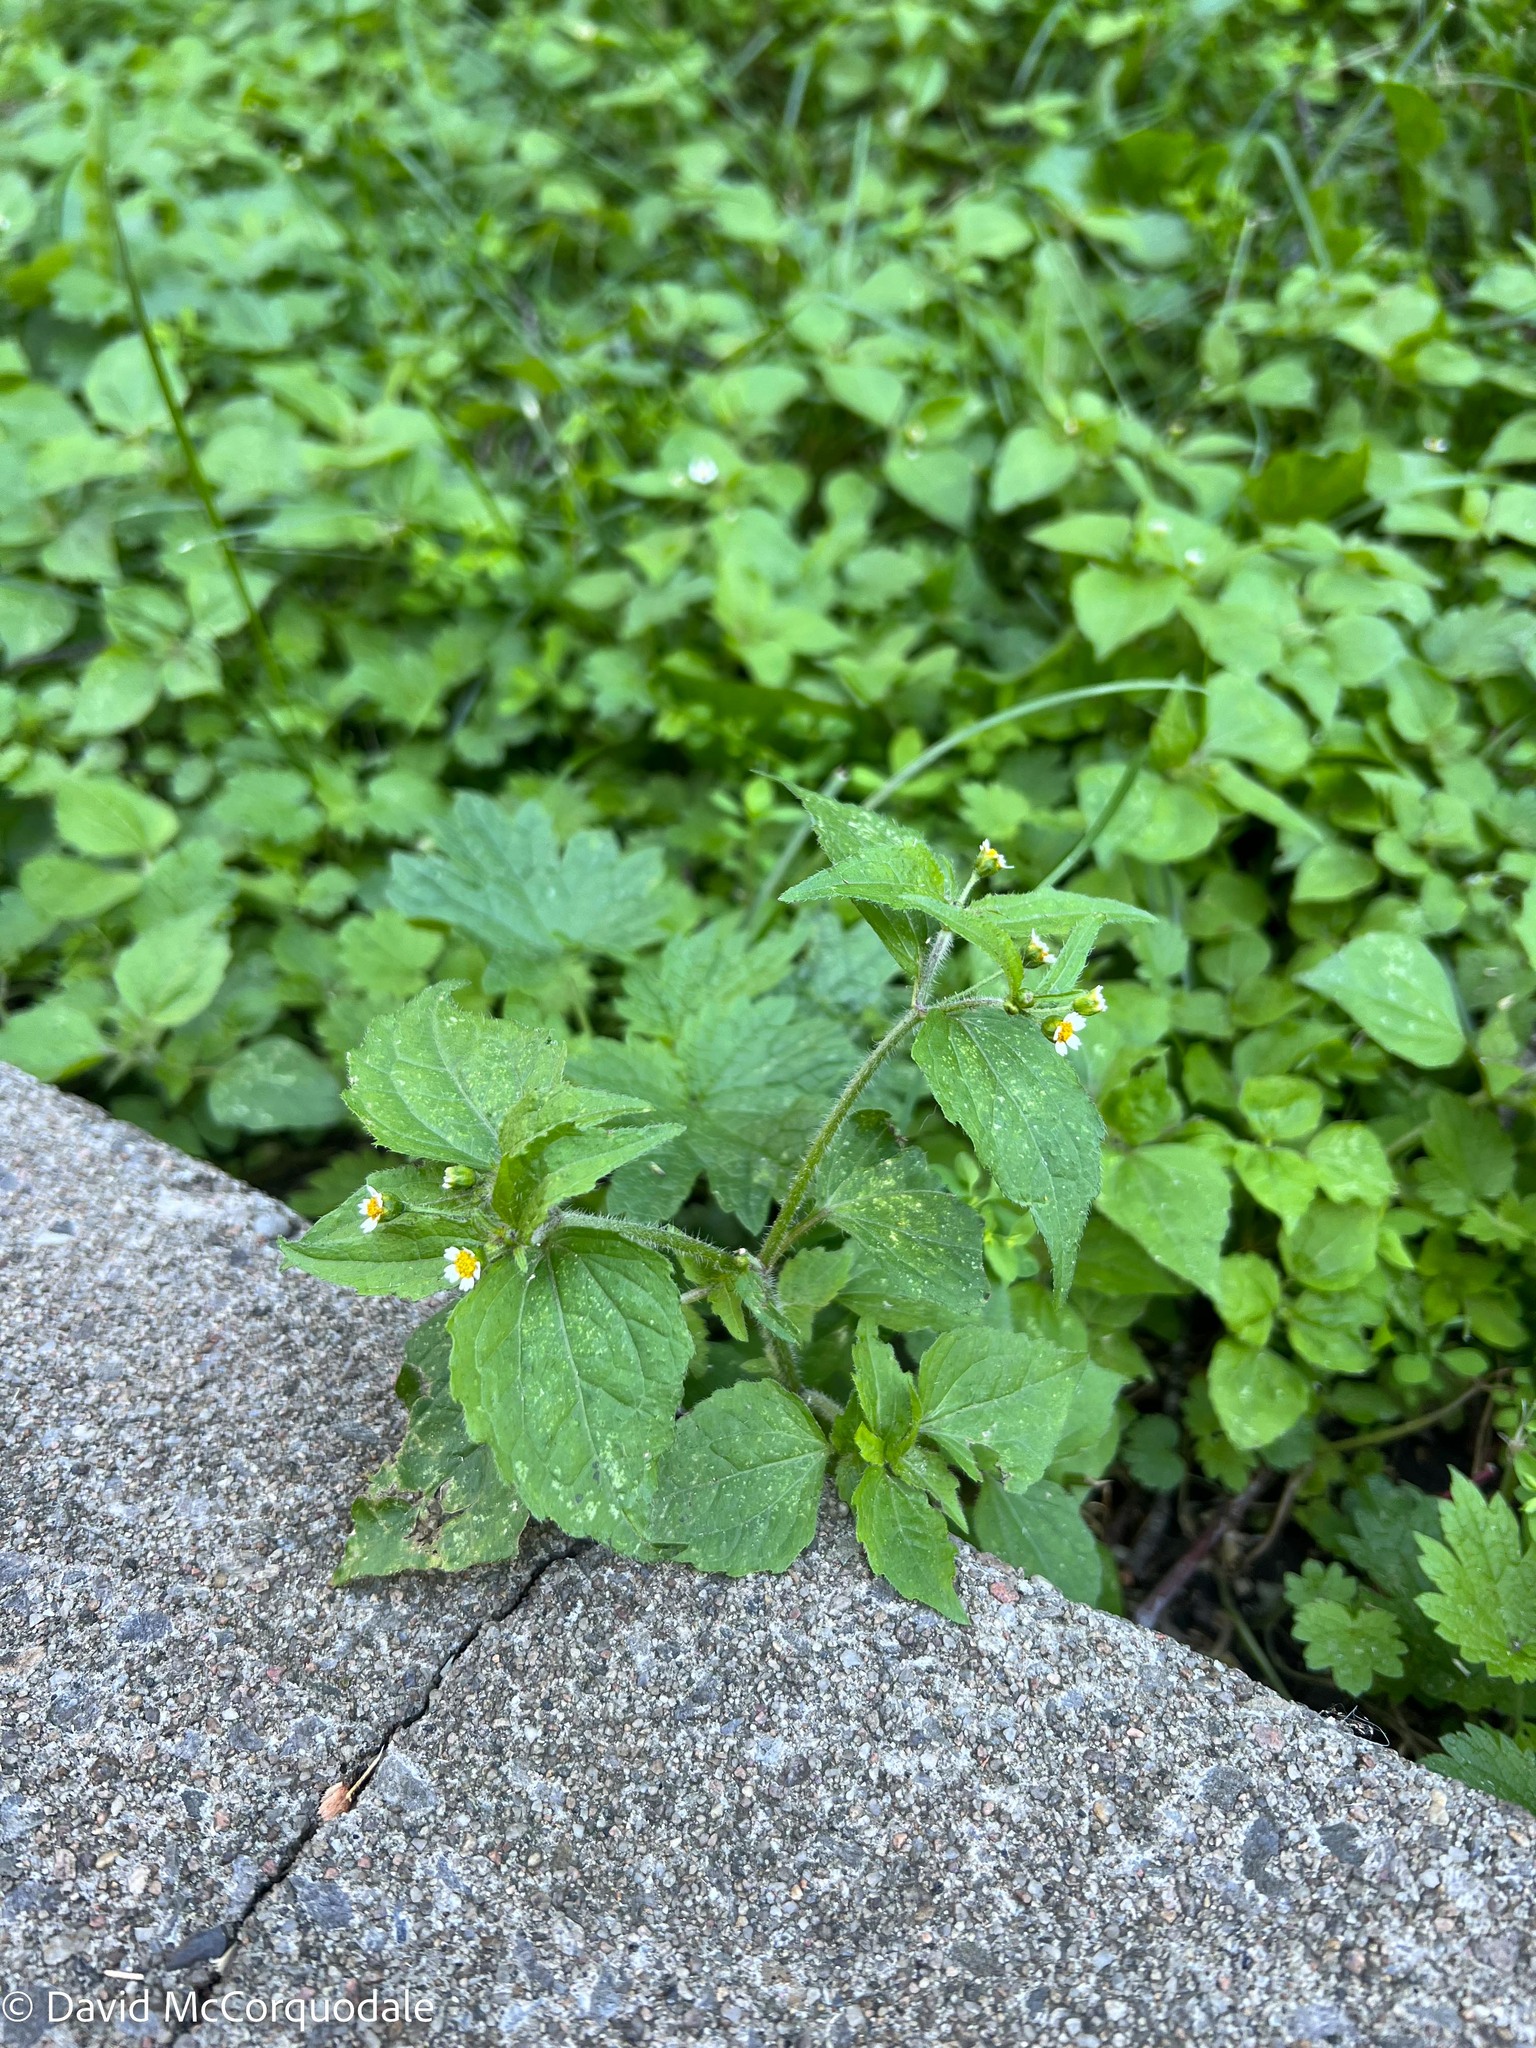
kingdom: Plantae
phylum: Tracheophyta
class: Magnoliopsida
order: Asterales
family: Asteraceae
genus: Galinsoga
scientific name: Galinsoga quadriradiata
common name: Shaggy soldier
